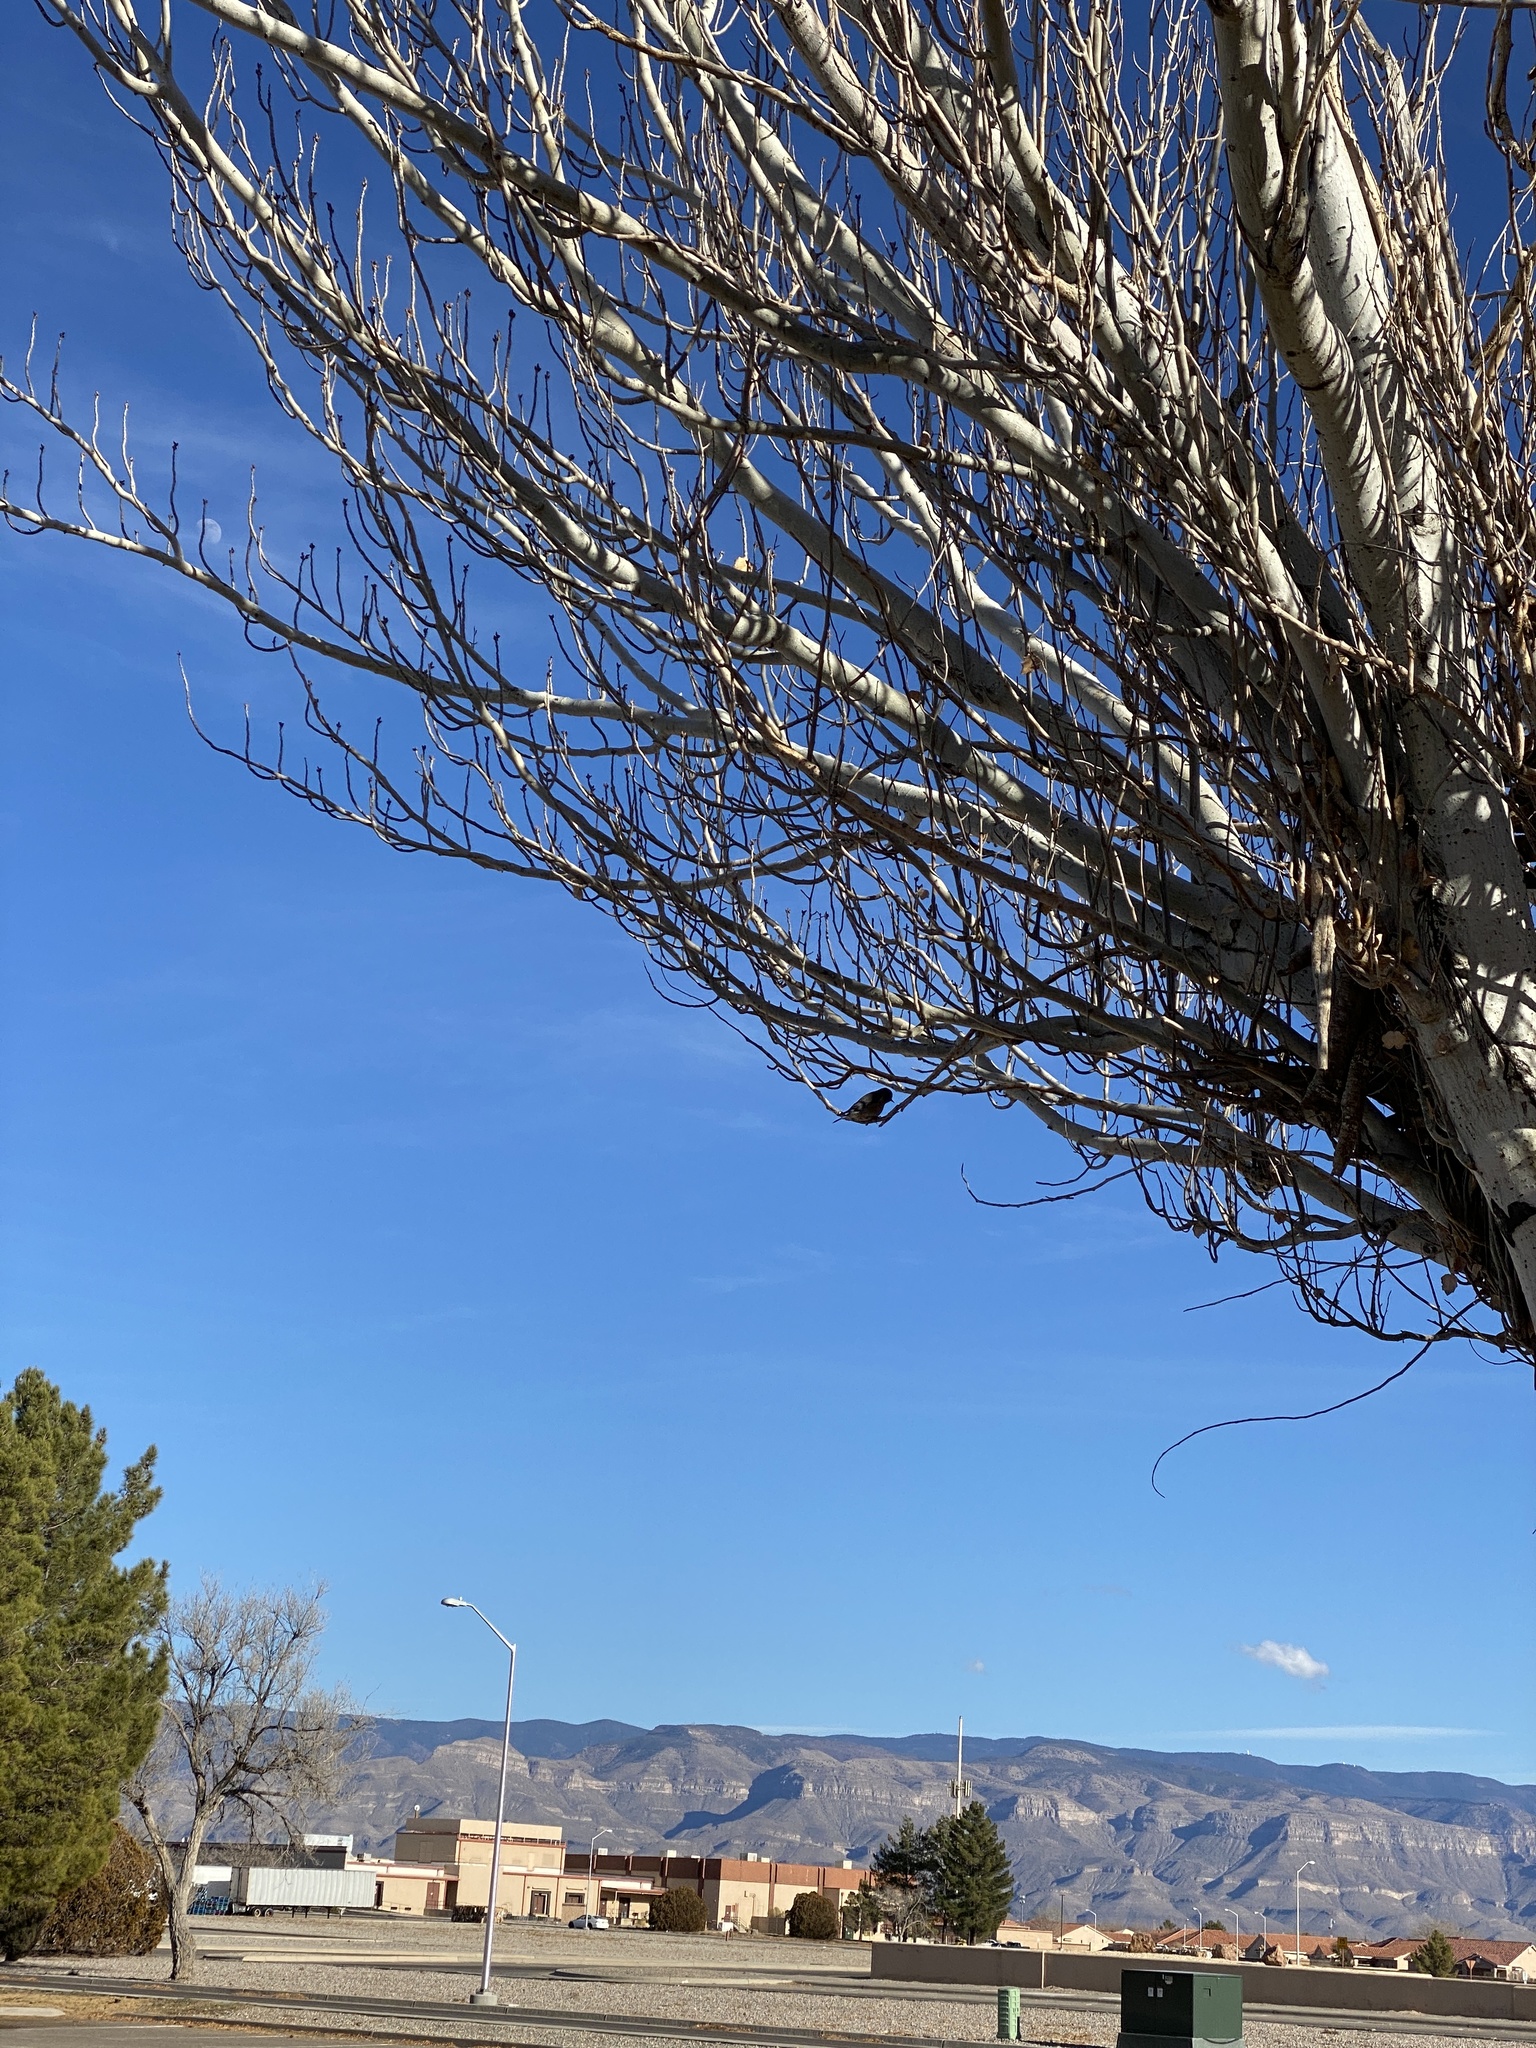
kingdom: Animalia
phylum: Chordata
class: Aves
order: Passeriformes
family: Turdidae
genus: Sialia
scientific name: Sialia mexicana
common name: Western bluebird
